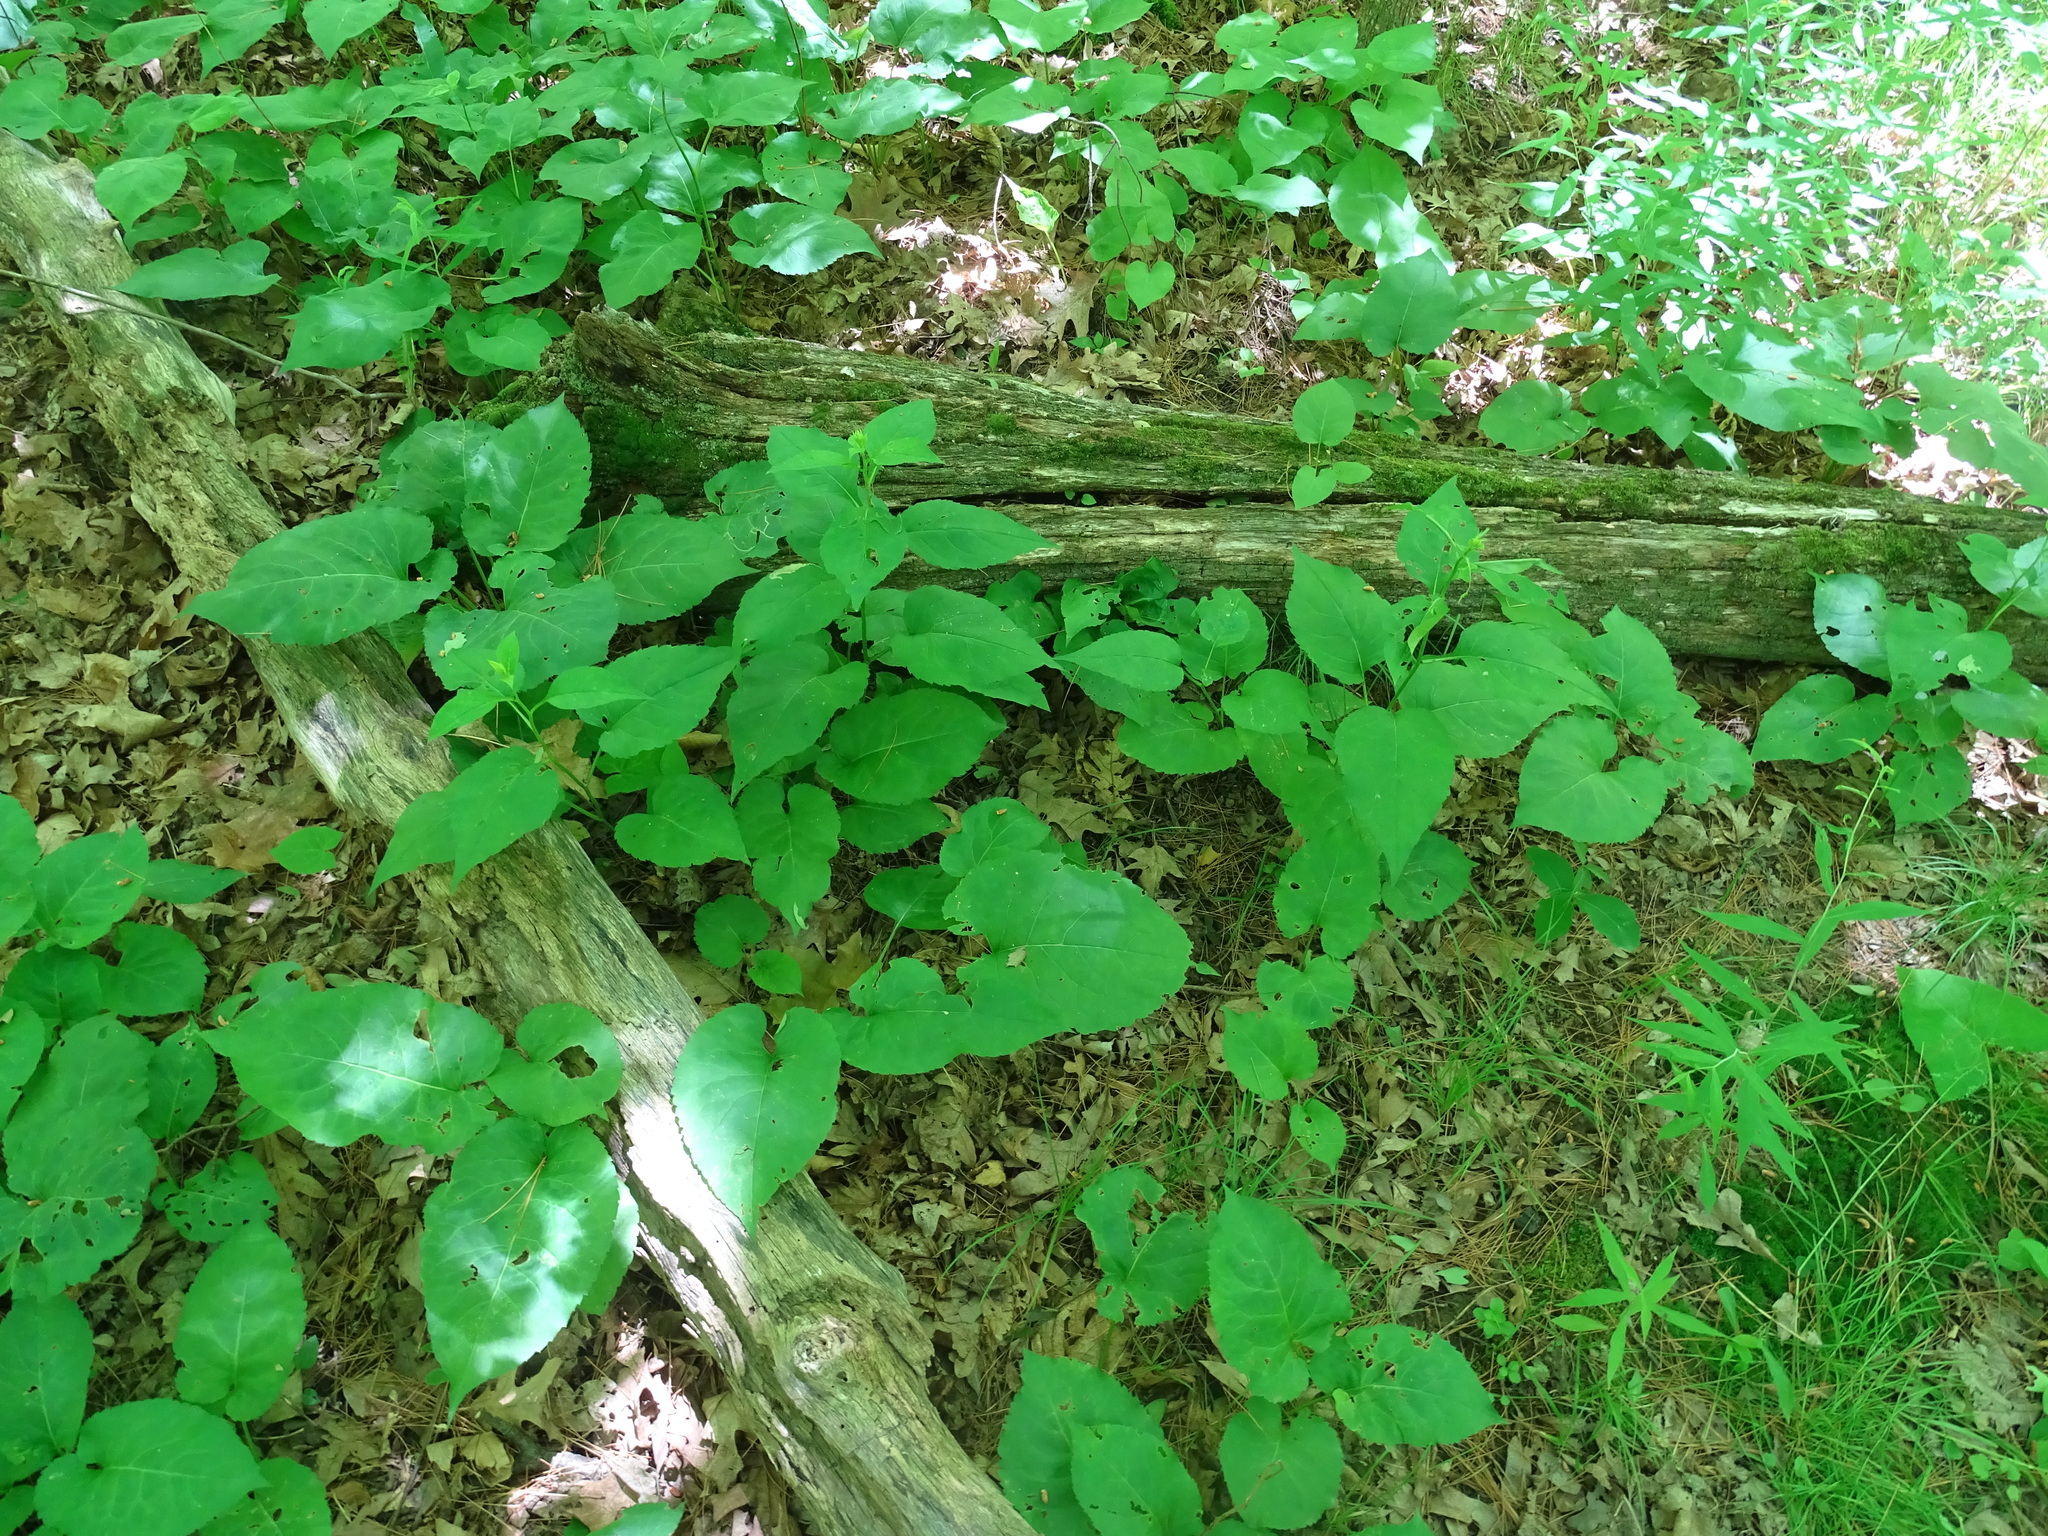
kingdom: Plantae
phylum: Tracheophyta
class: Magnoliopsida
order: Asterales
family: Asteraceae
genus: Eurybia
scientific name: Eurybia macrophylla
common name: Big-leaved aster
